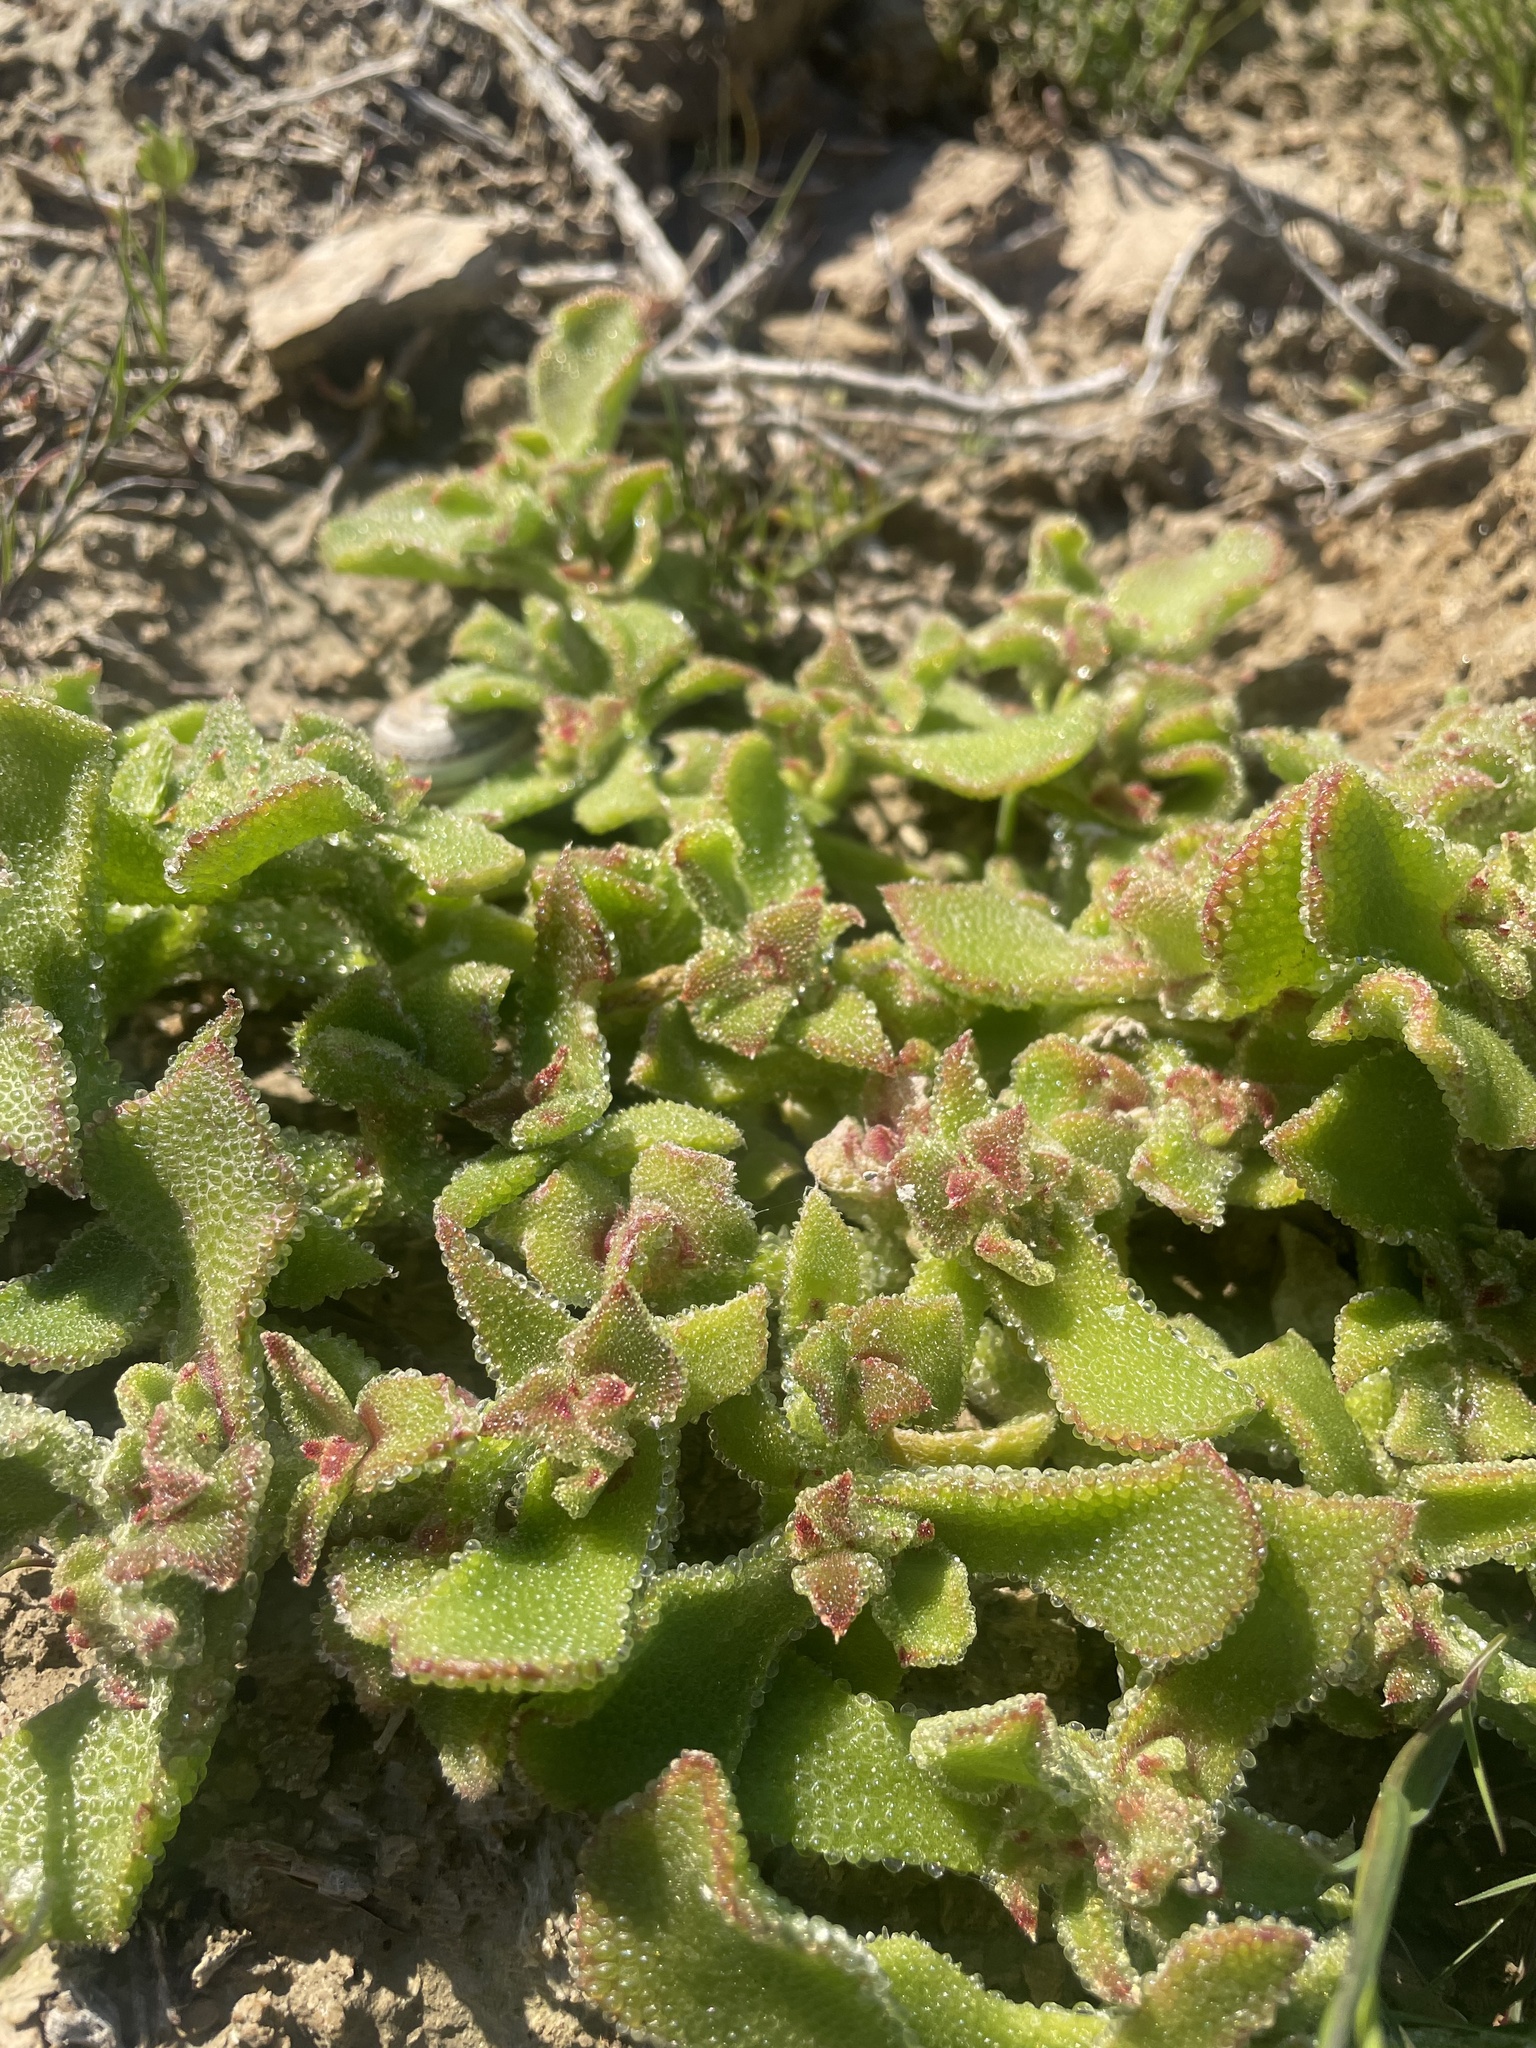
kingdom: Plantae
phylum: Tracheophyta
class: Magnoliopsida
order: Caryophyllales
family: Aizoaceae
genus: Mesembryanthemum
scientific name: Mesembryanthemum crystallinum
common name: Common iceplant
